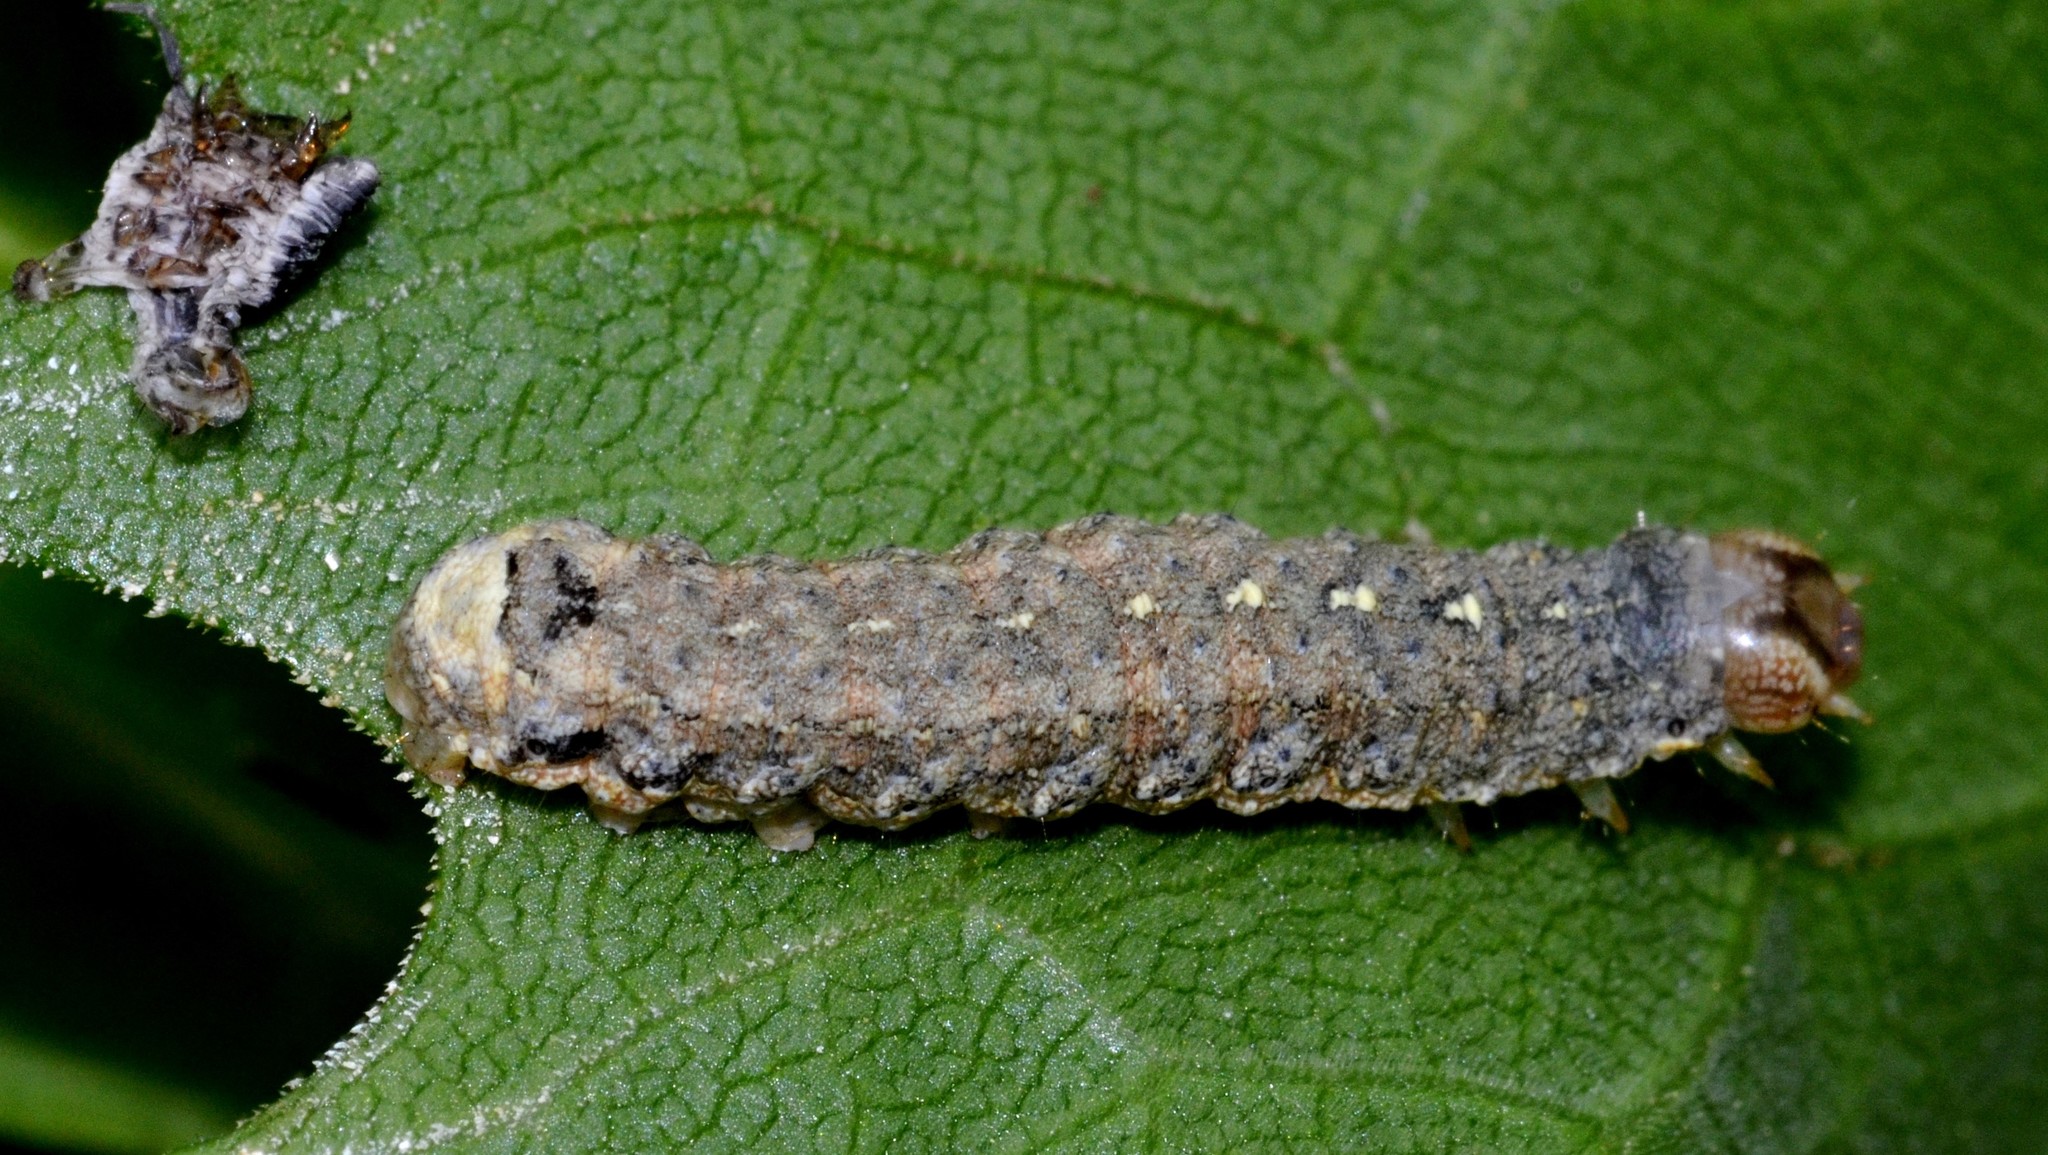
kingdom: Animalia
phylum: Arthropoda
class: Insecta
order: Lepidoptera
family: Noctuidae
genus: Peridroma
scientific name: Peridroma saucia
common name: Pearly underwing
